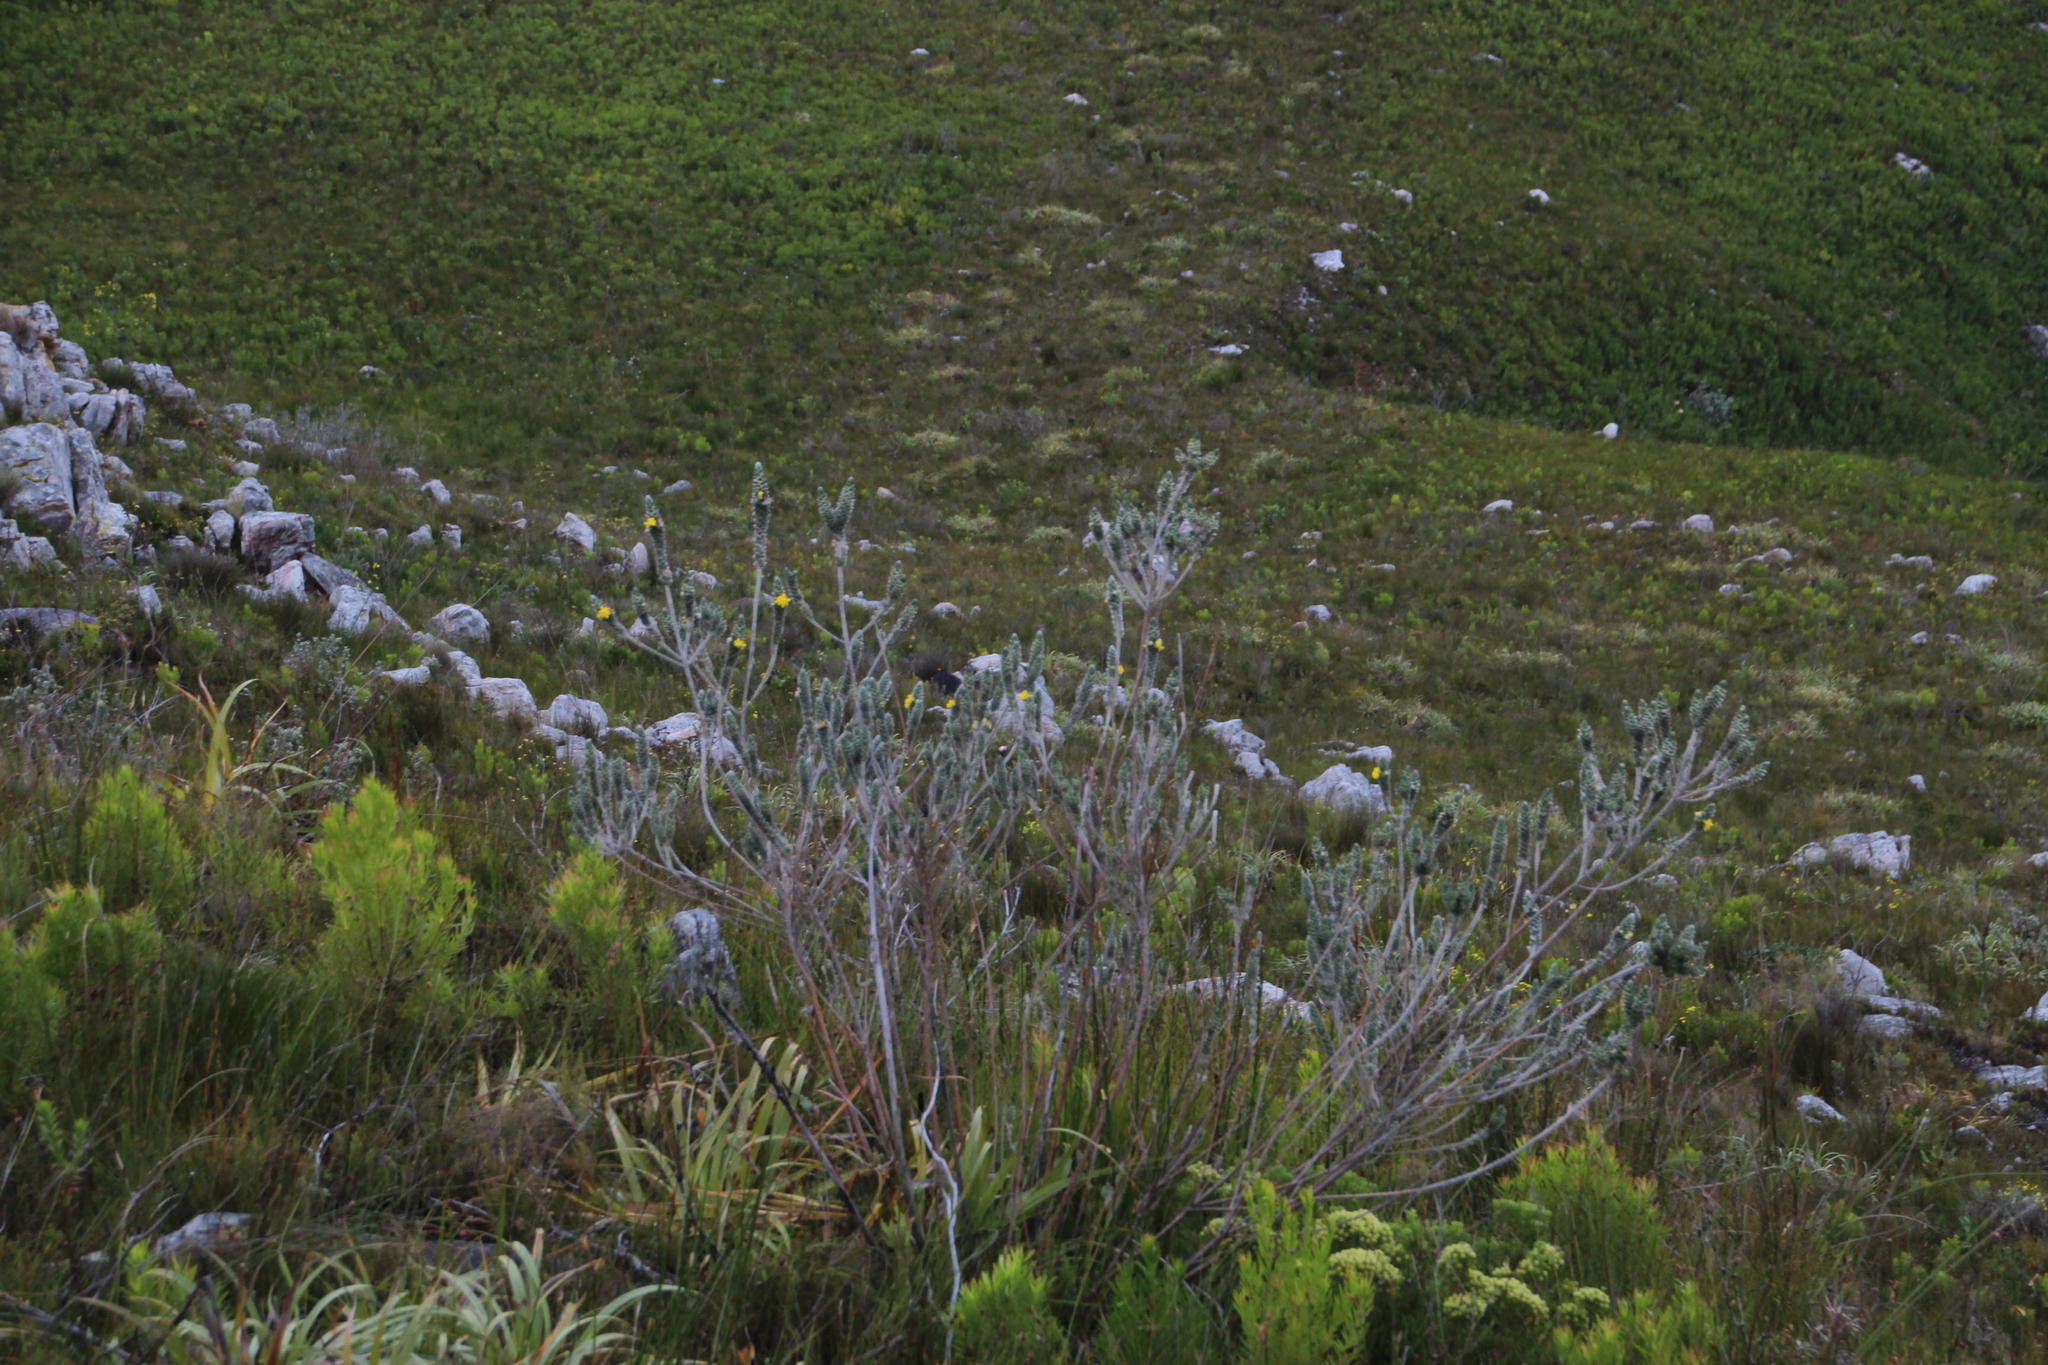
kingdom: Plantae
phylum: Tracheophyta
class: Magnoliopsida
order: Fabales
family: Fabaceae
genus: Liparia
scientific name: Liparia vestita
